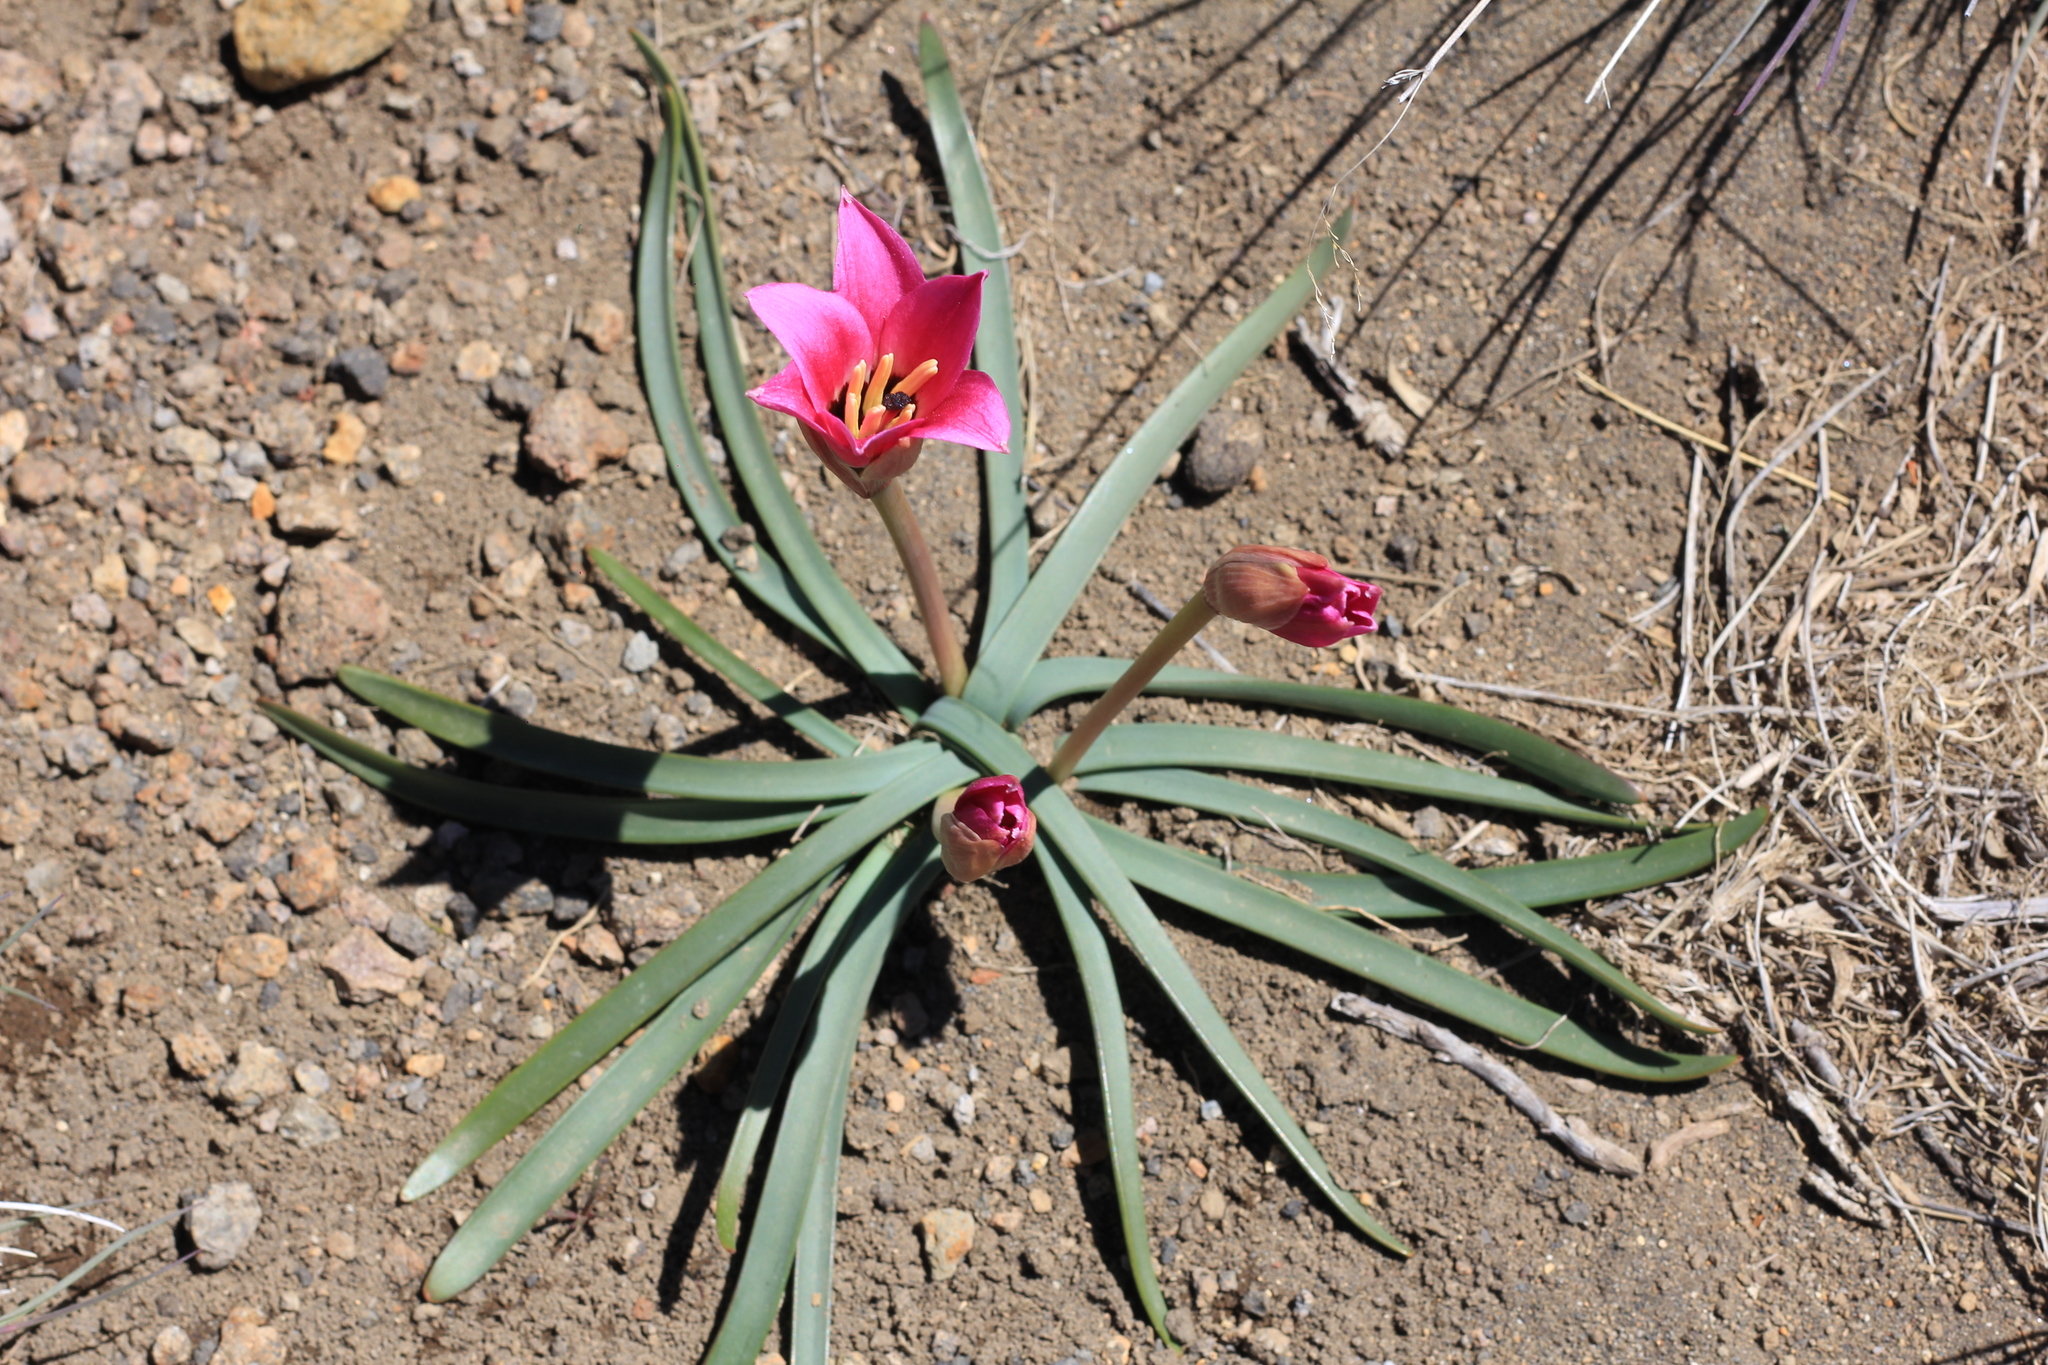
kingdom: Plantae
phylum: Tracheophyta
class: Liliopsida
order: Asparagales
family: Amaryllidaceae
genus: Rhodolirium
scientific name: Rhodolirium andicola
